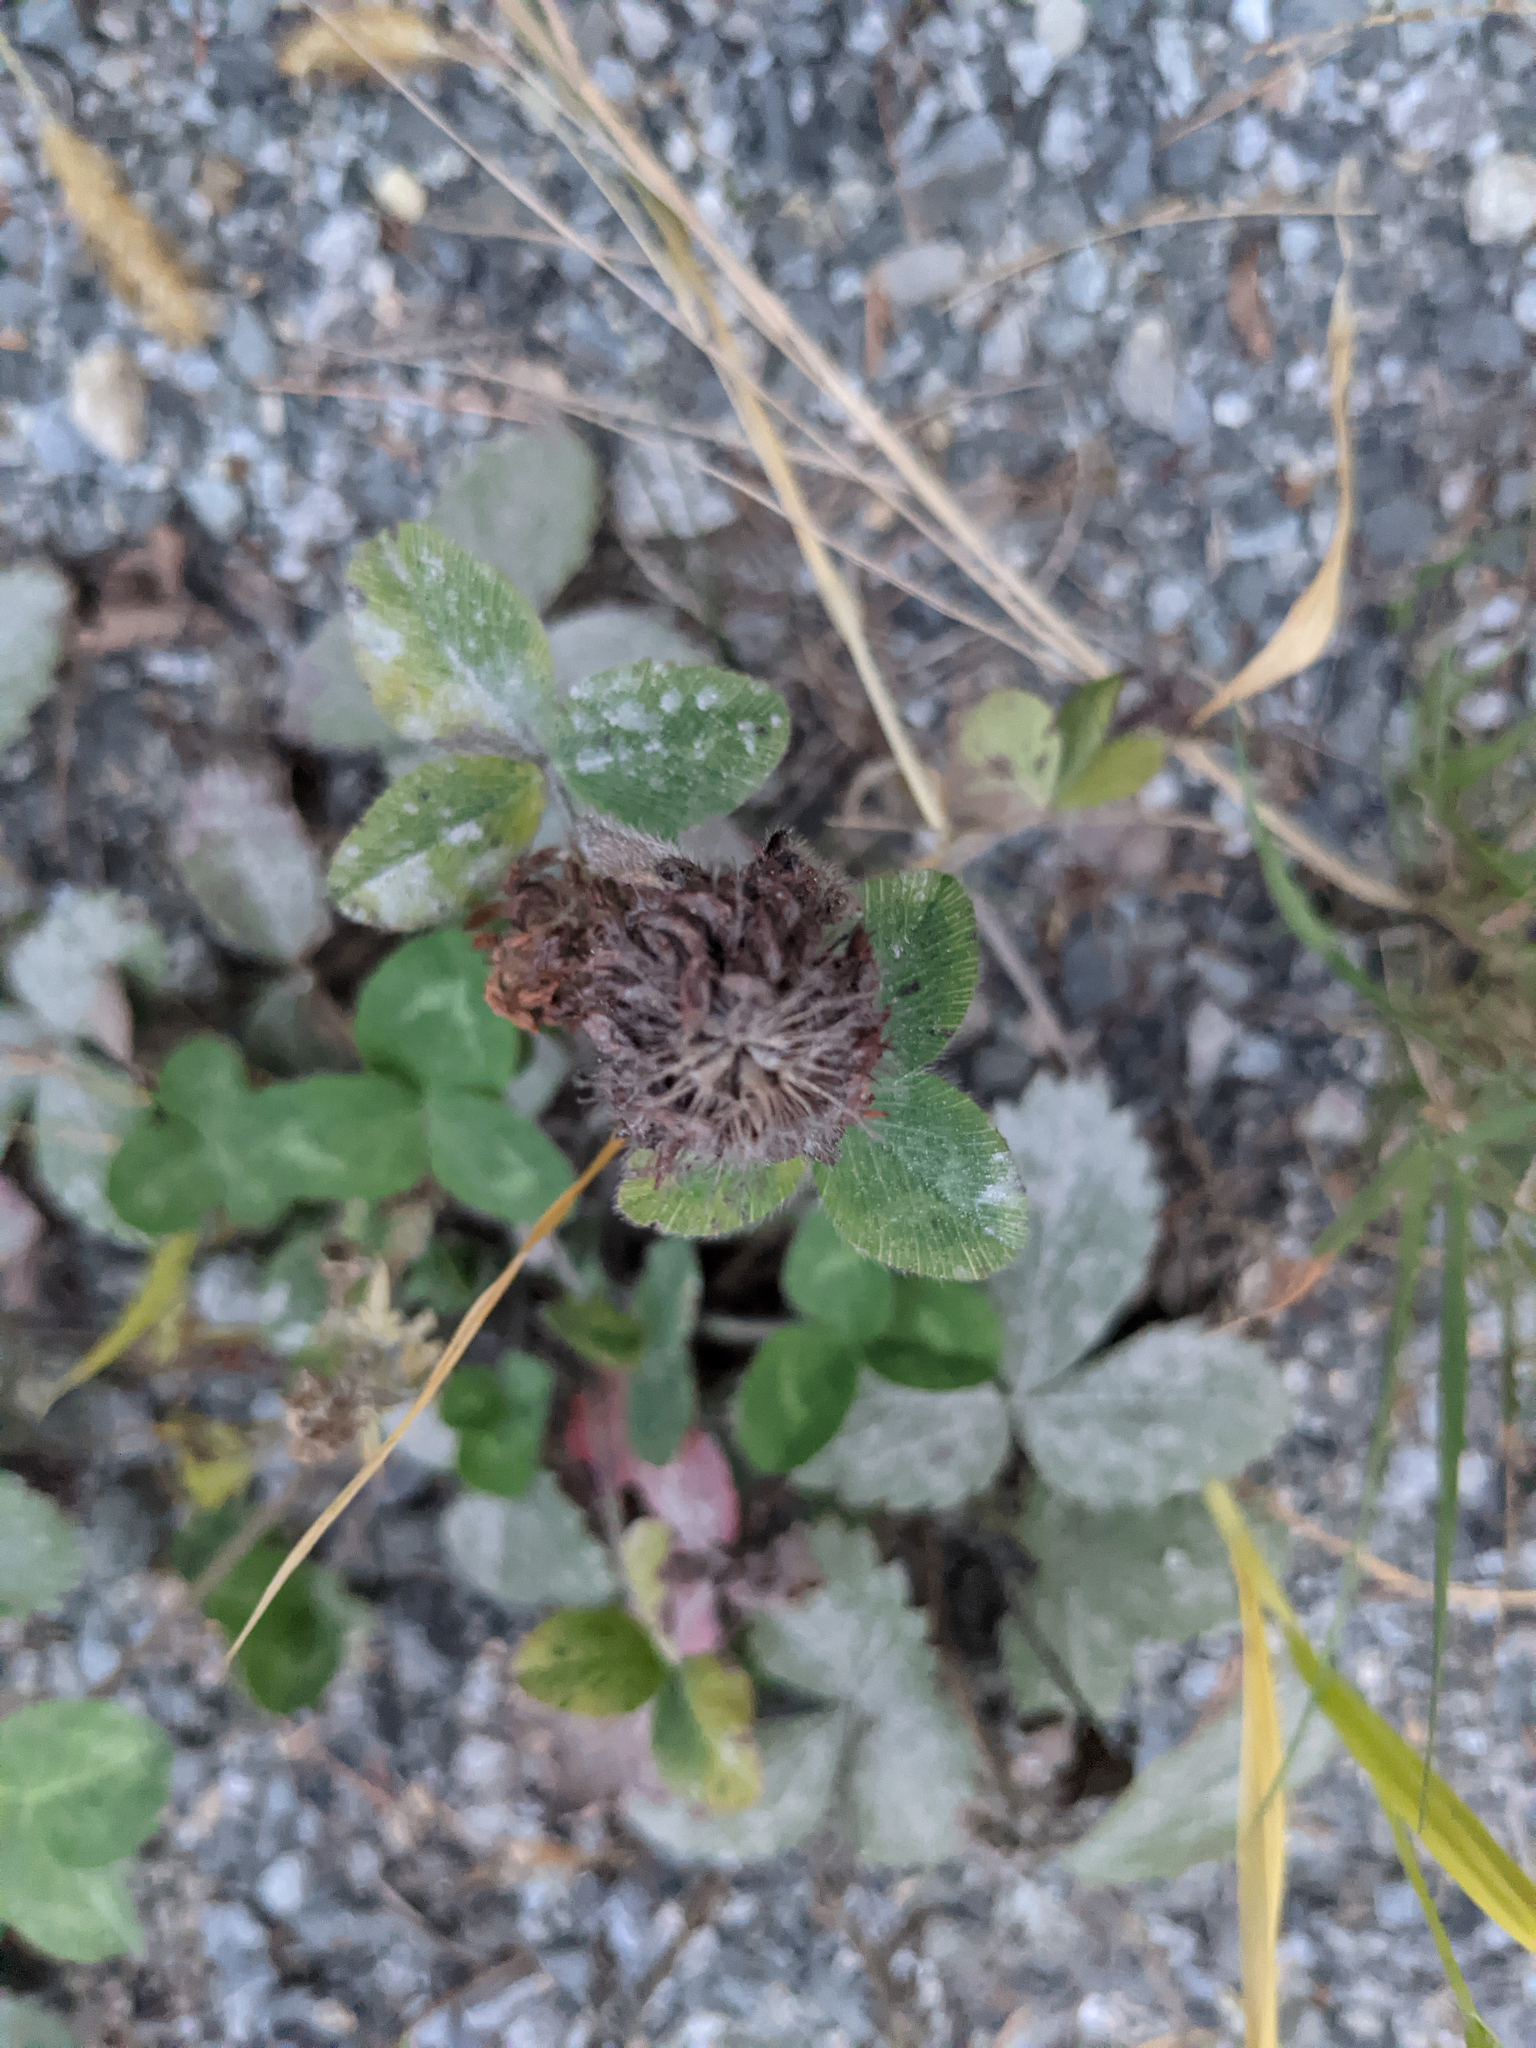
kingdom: Plantae
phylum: Tracheophyta
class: Magnoliopsida
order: Fabales
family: Fabaceae
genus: Trifolium
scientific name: Trifolium pratense
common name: Red clover
